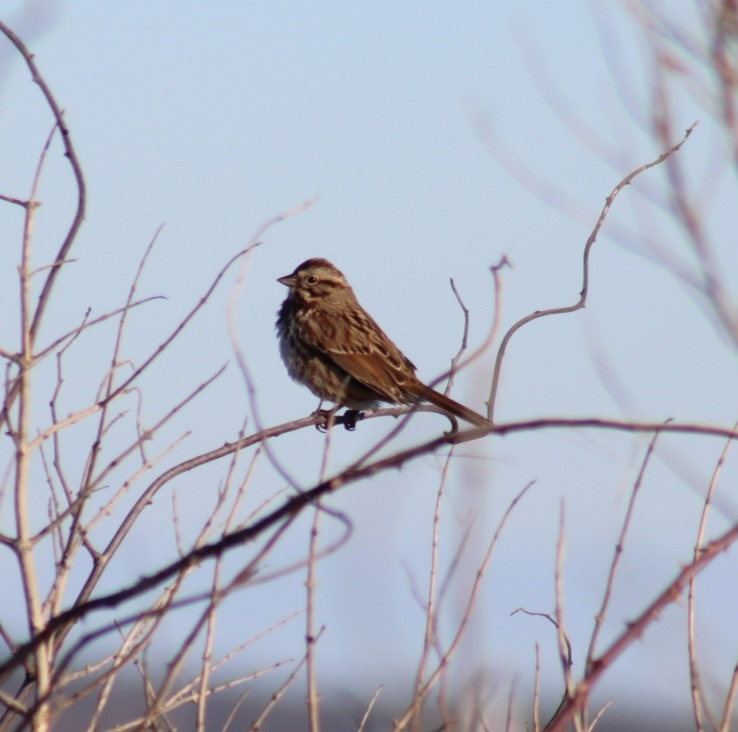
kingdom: Animalia
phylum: Chordata
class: Aves
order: Passeriformes
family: Passerellidae
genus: Melospiza
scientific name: Melospiza melodia
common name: Song sparrow
